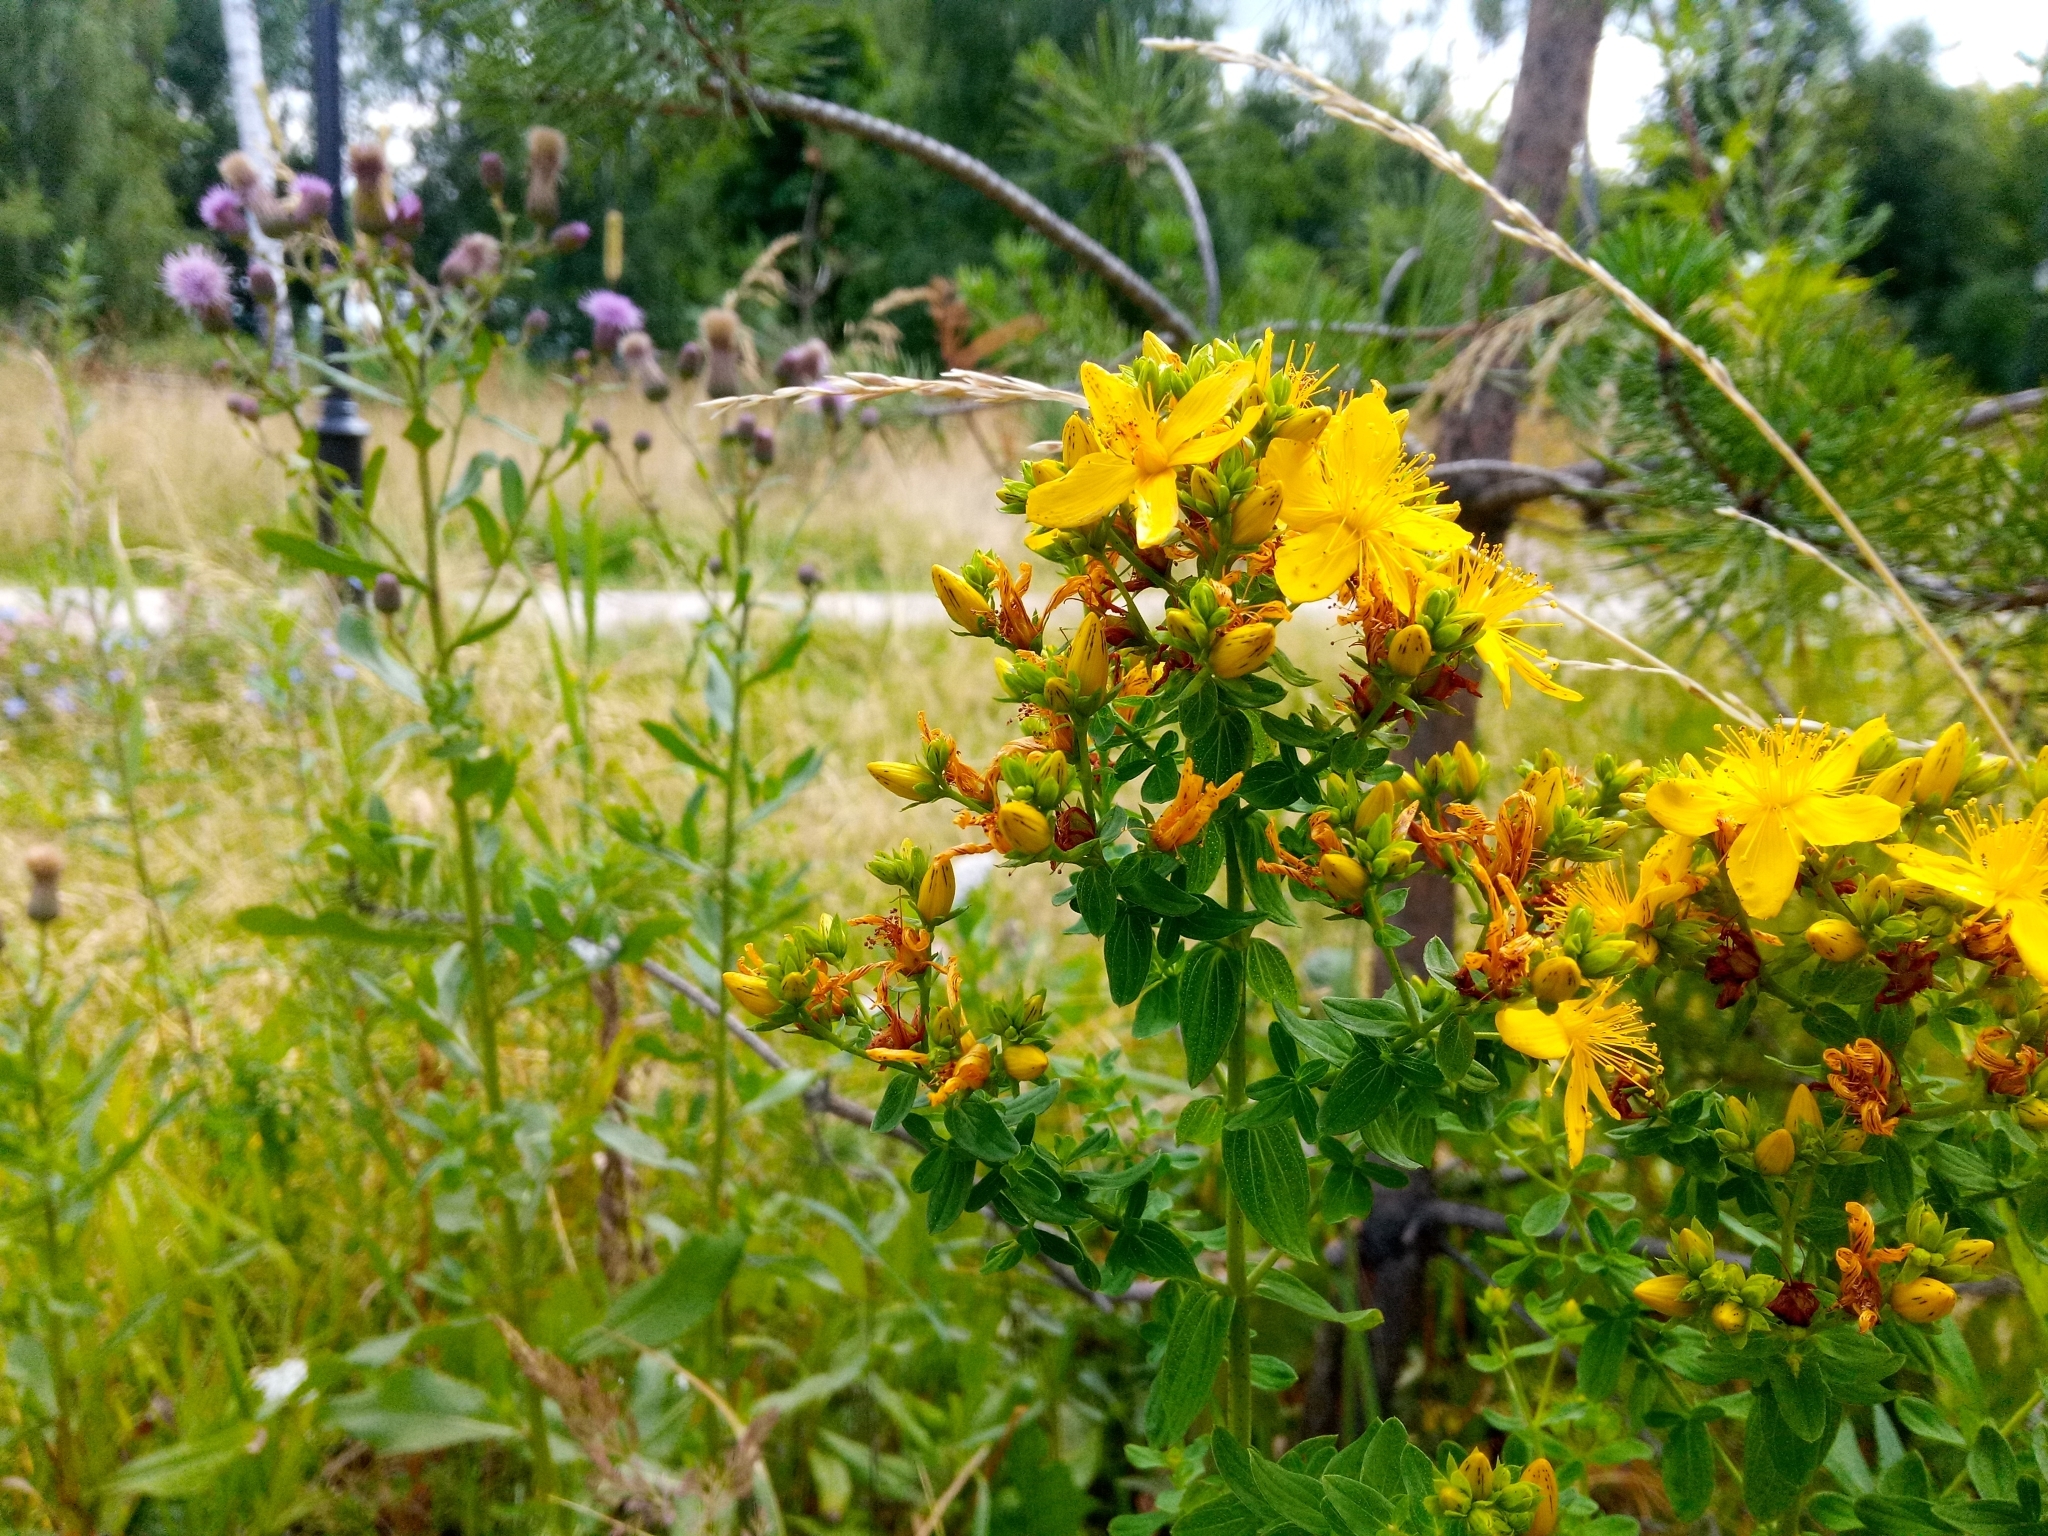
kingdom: Plantae
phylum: Tracheophyta
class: Magnoliopsida
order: Malpighiales
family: Hypericaceae
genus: Hypericum
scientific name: Hypericum perforatum
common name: Common st. johnswort
